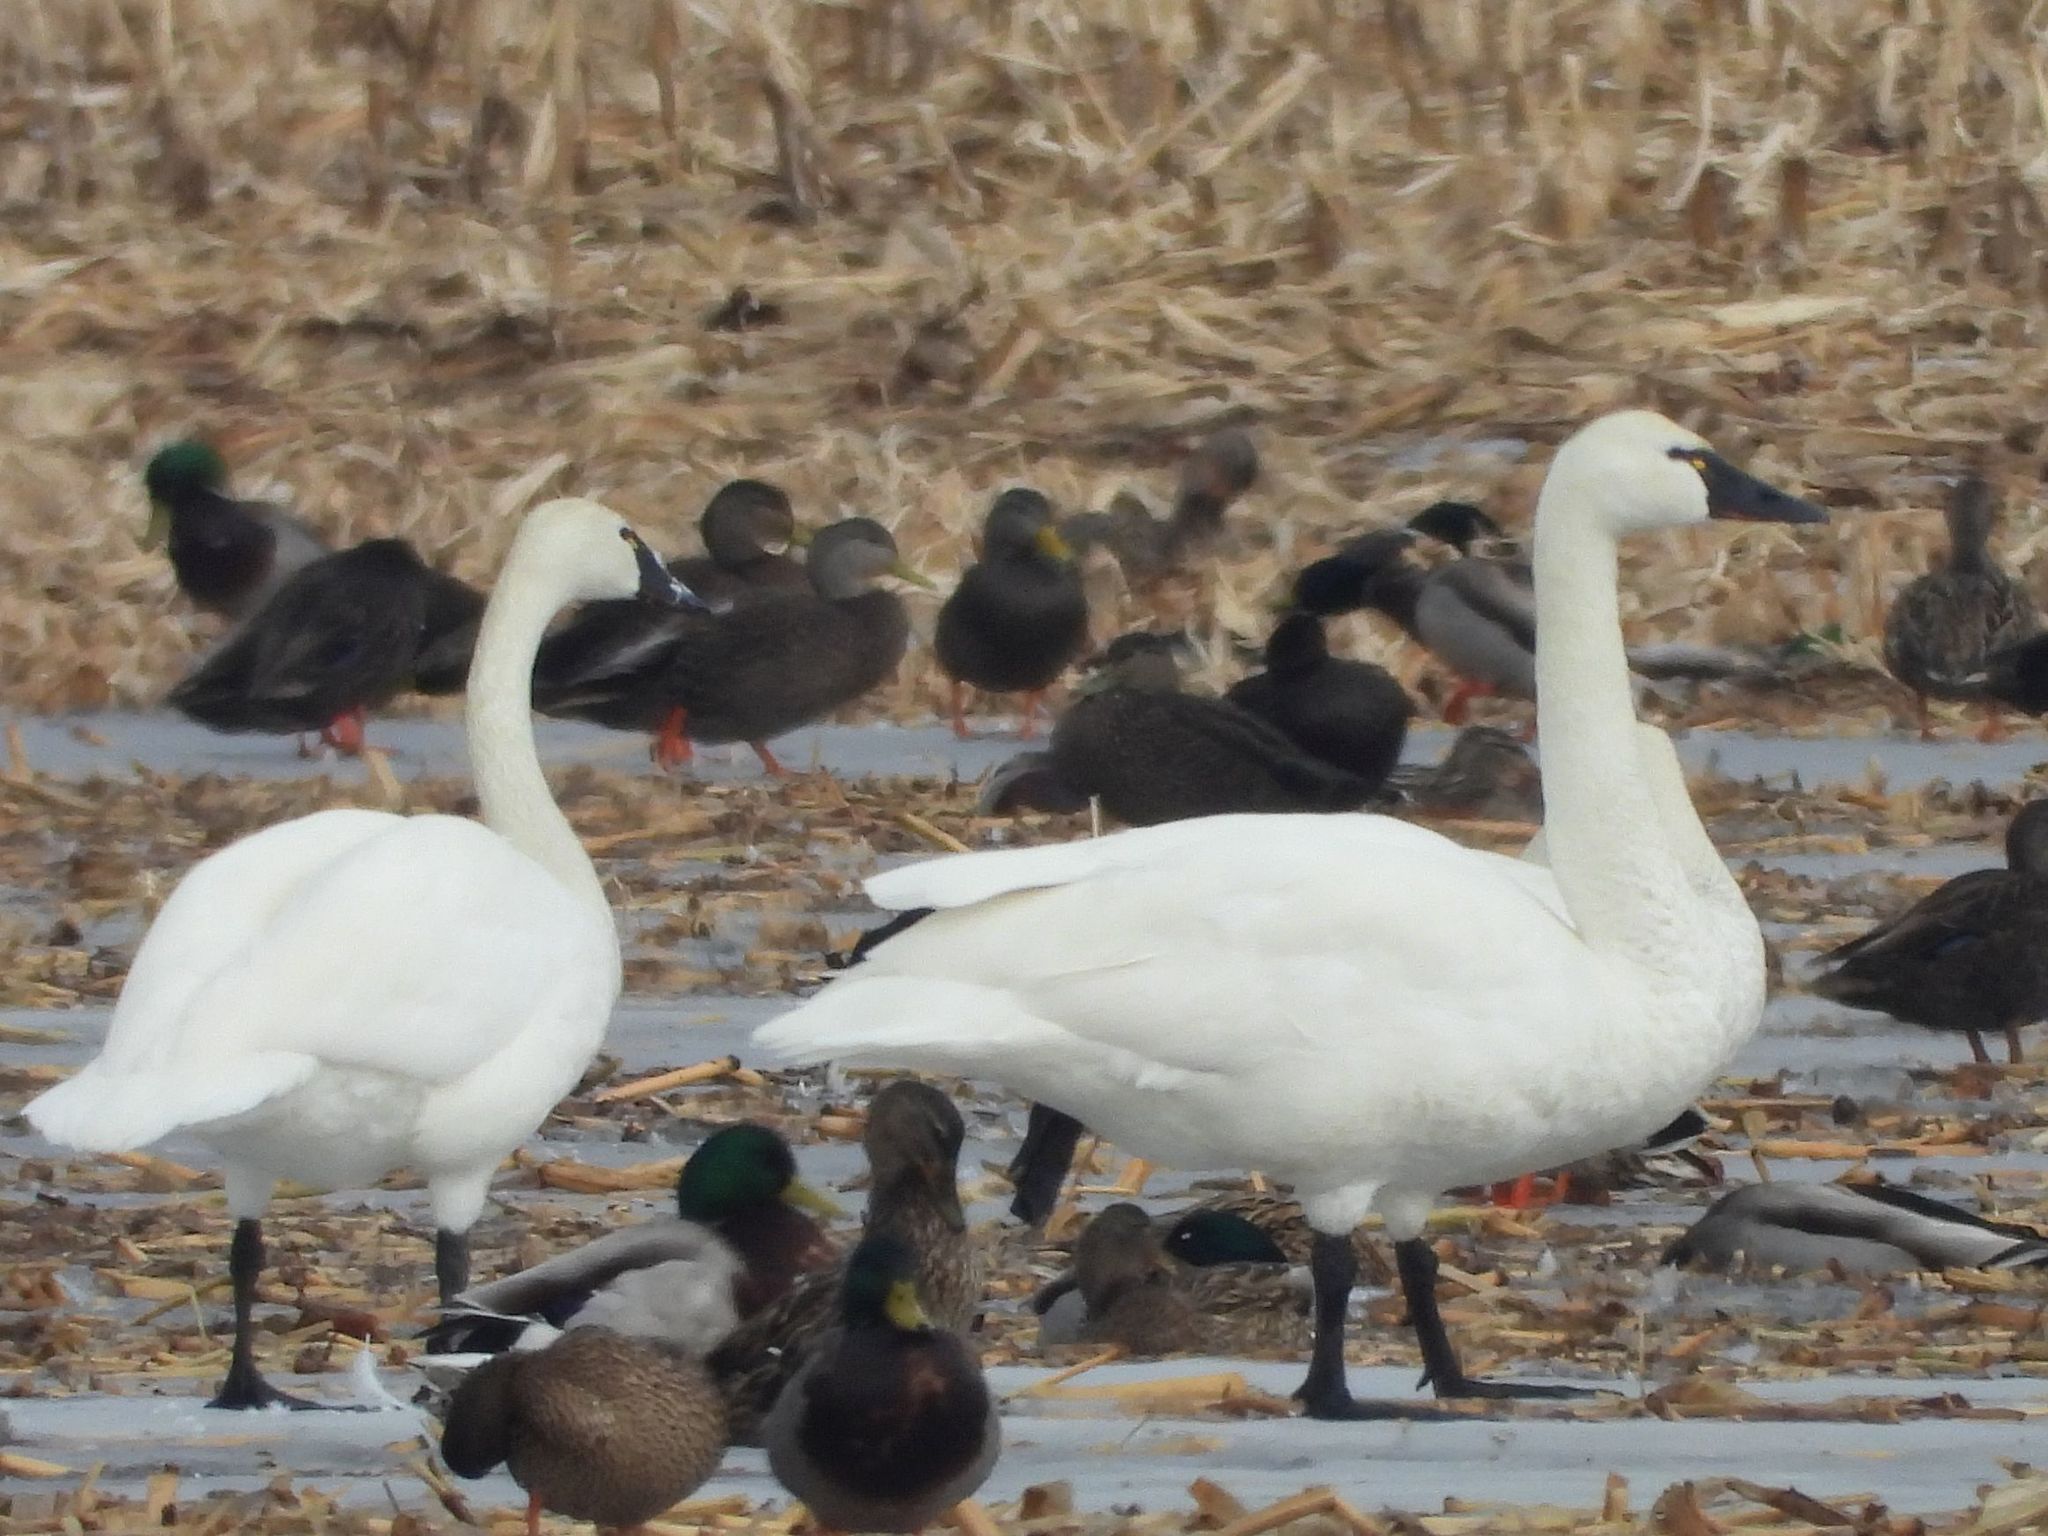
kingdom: Animalia
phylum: Chordata
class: Aves
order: Anseriformes
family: Anatidae
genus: Cygnus
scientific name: Cygnus columbianus
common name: Tundra swan
